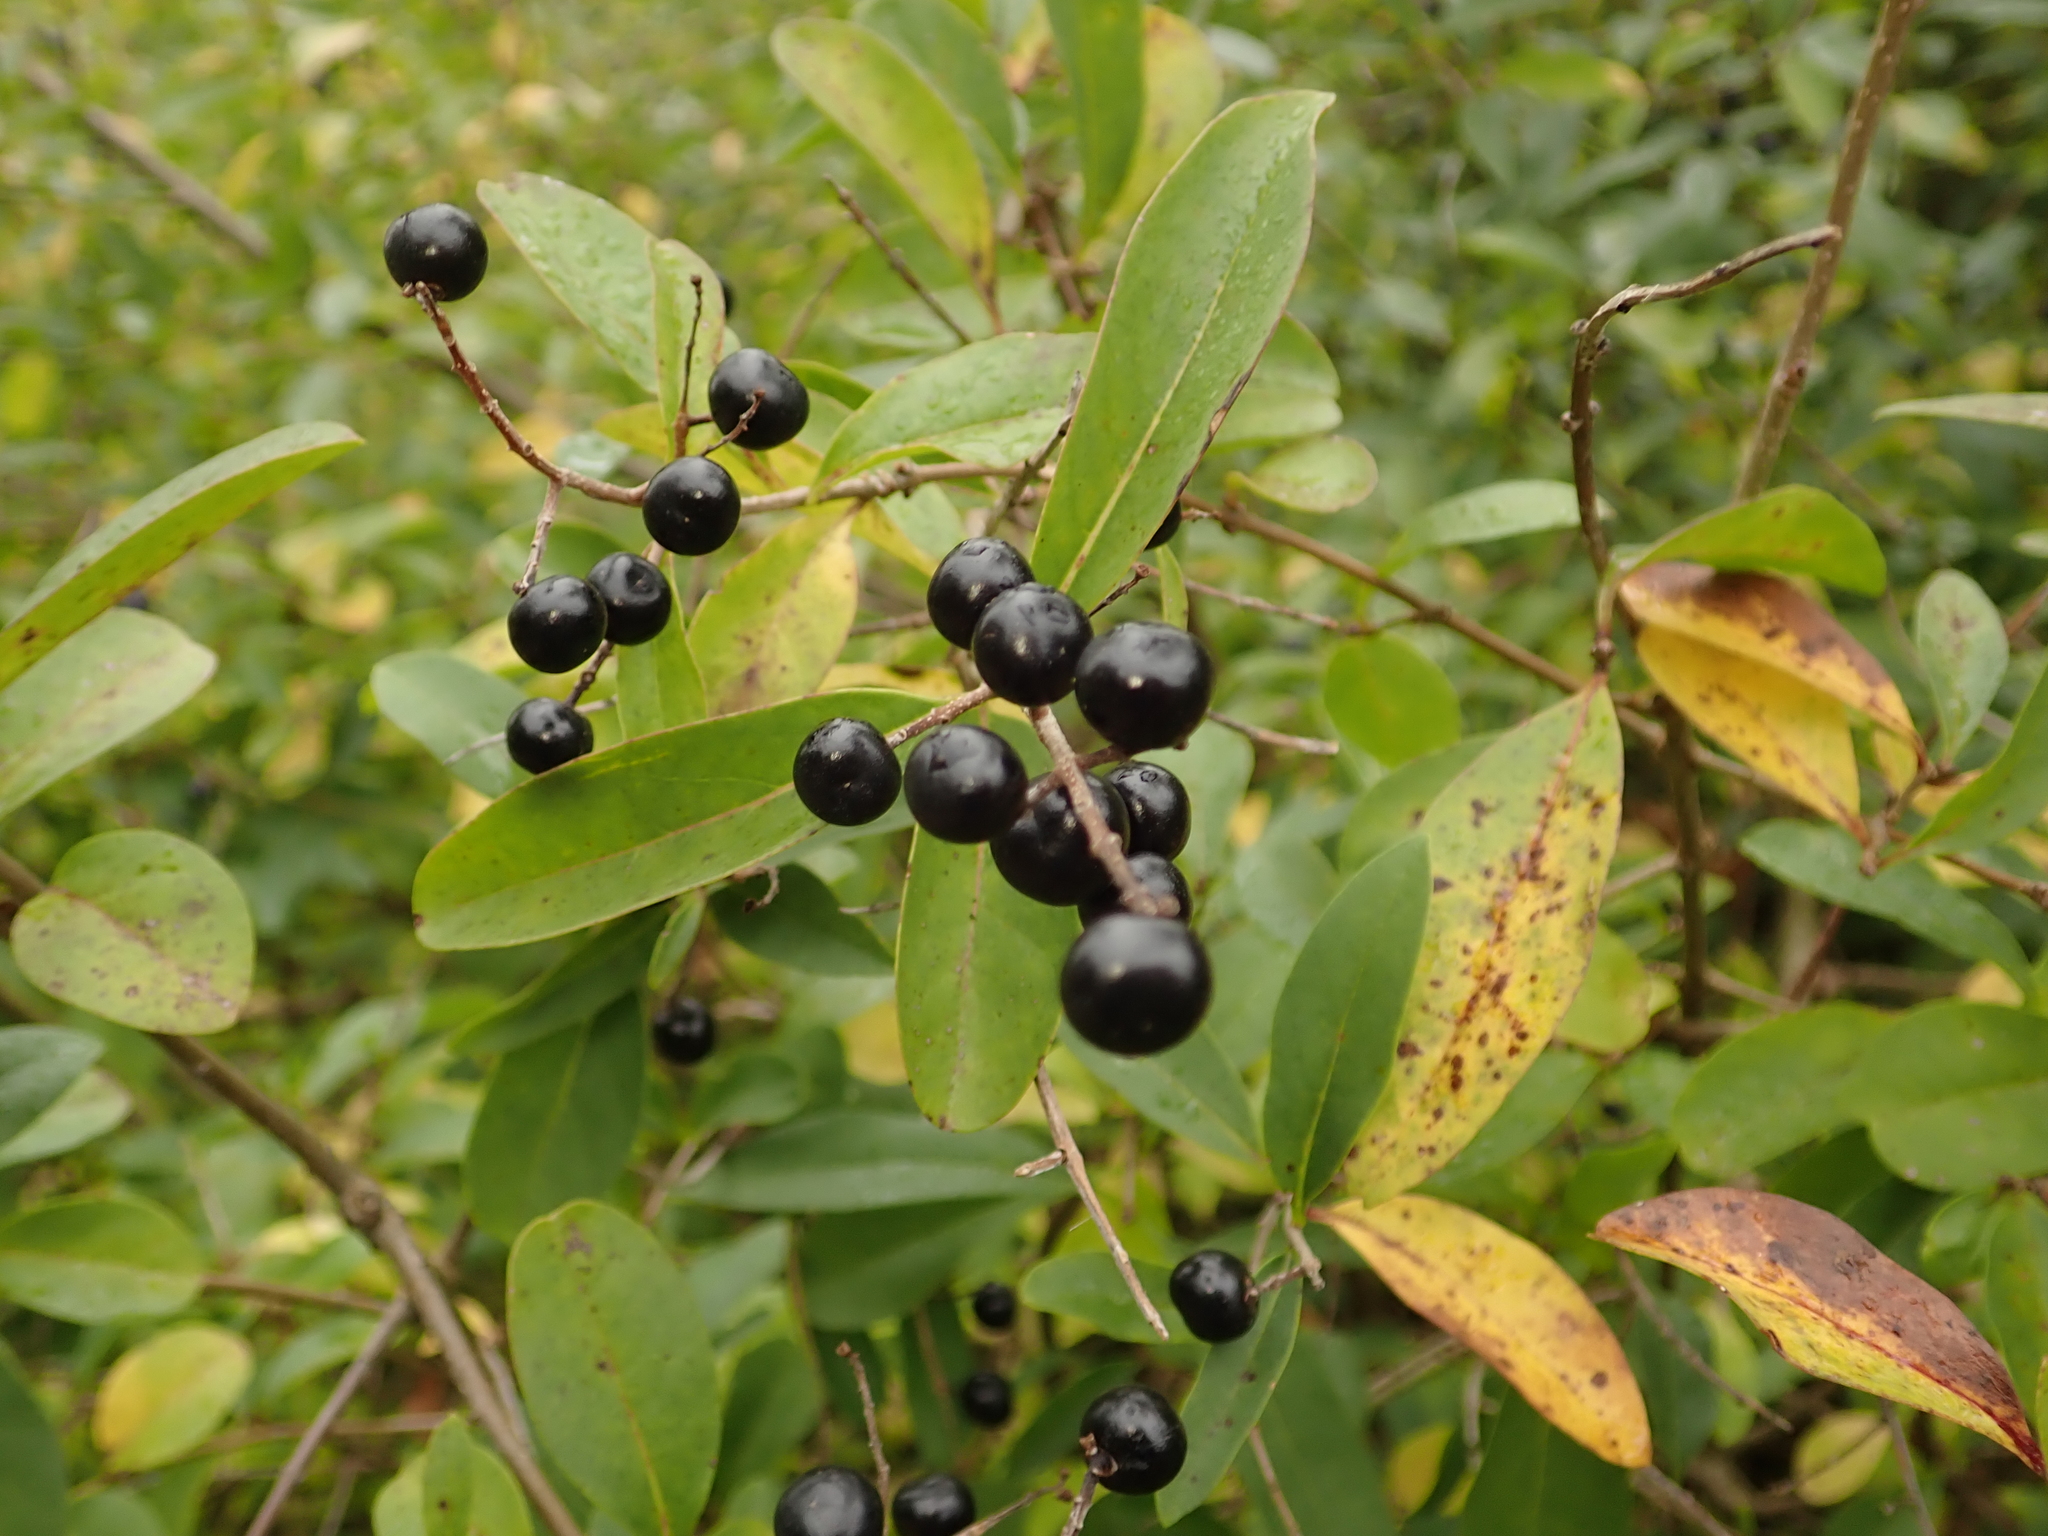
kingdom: Plantae
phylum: Tracheophyta
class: Magnoliopsida
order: Lamiales
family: Oleaceae
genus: Ligustrum
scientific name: Ligustrum vulgare
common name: Wild privet
